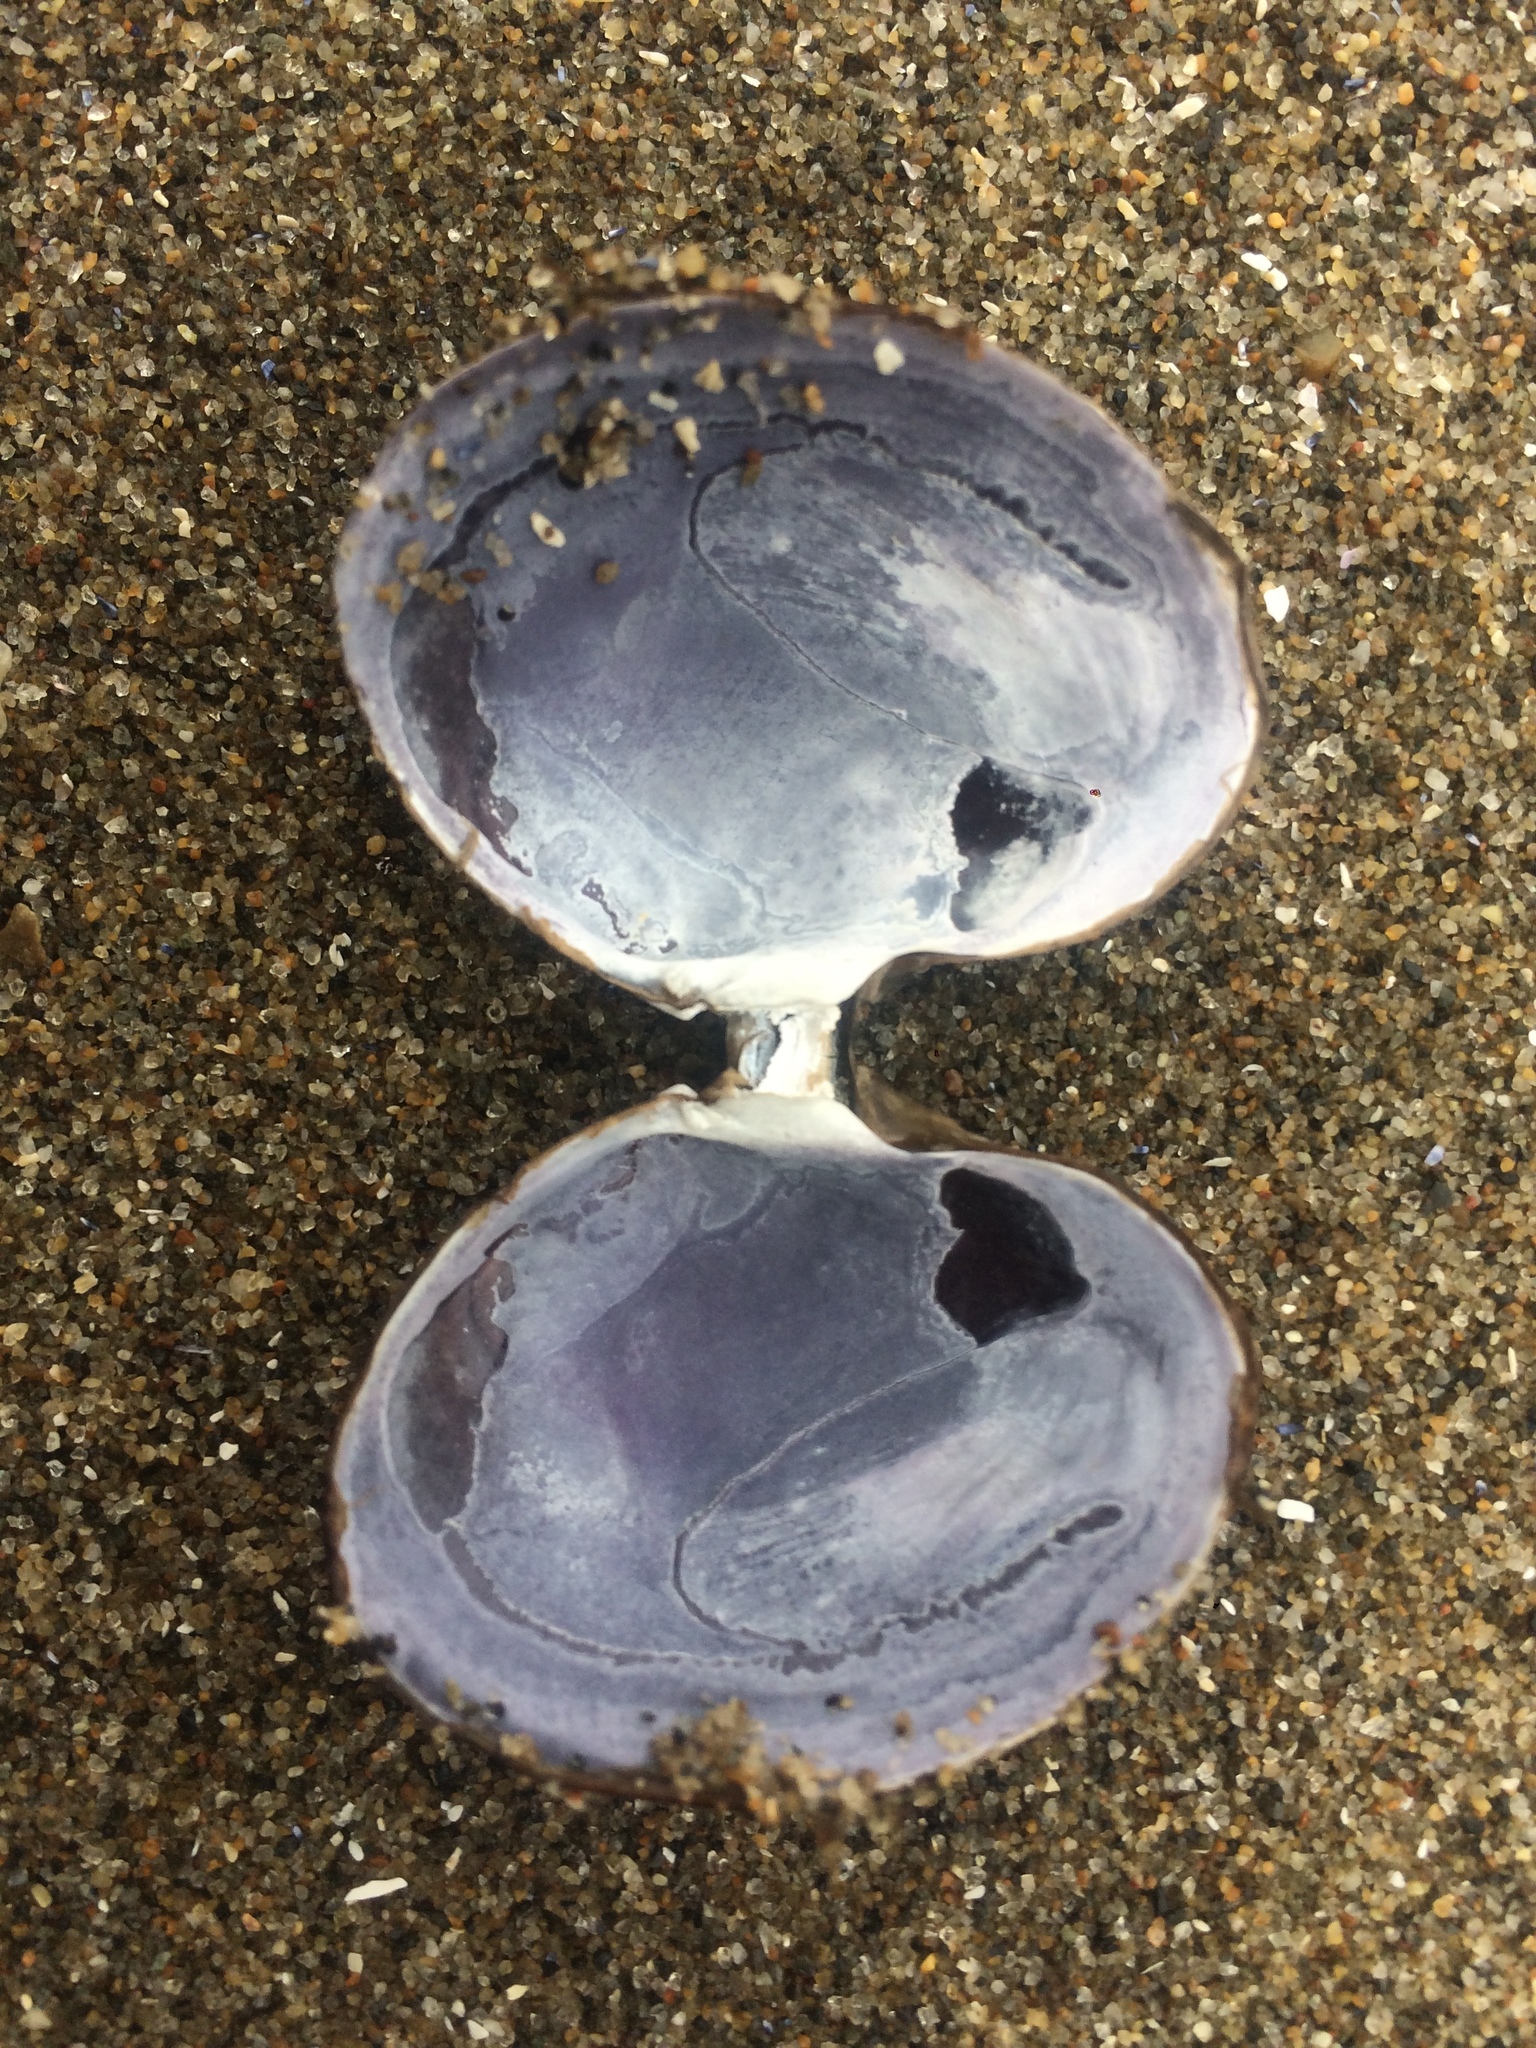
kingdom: Animalia
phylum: Mollusca
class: Bivalvia
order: Cardiida
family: Psammobiidae
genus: Nuttallia
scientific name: Nuttallia obscurata
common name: Purple mahogany-clam
